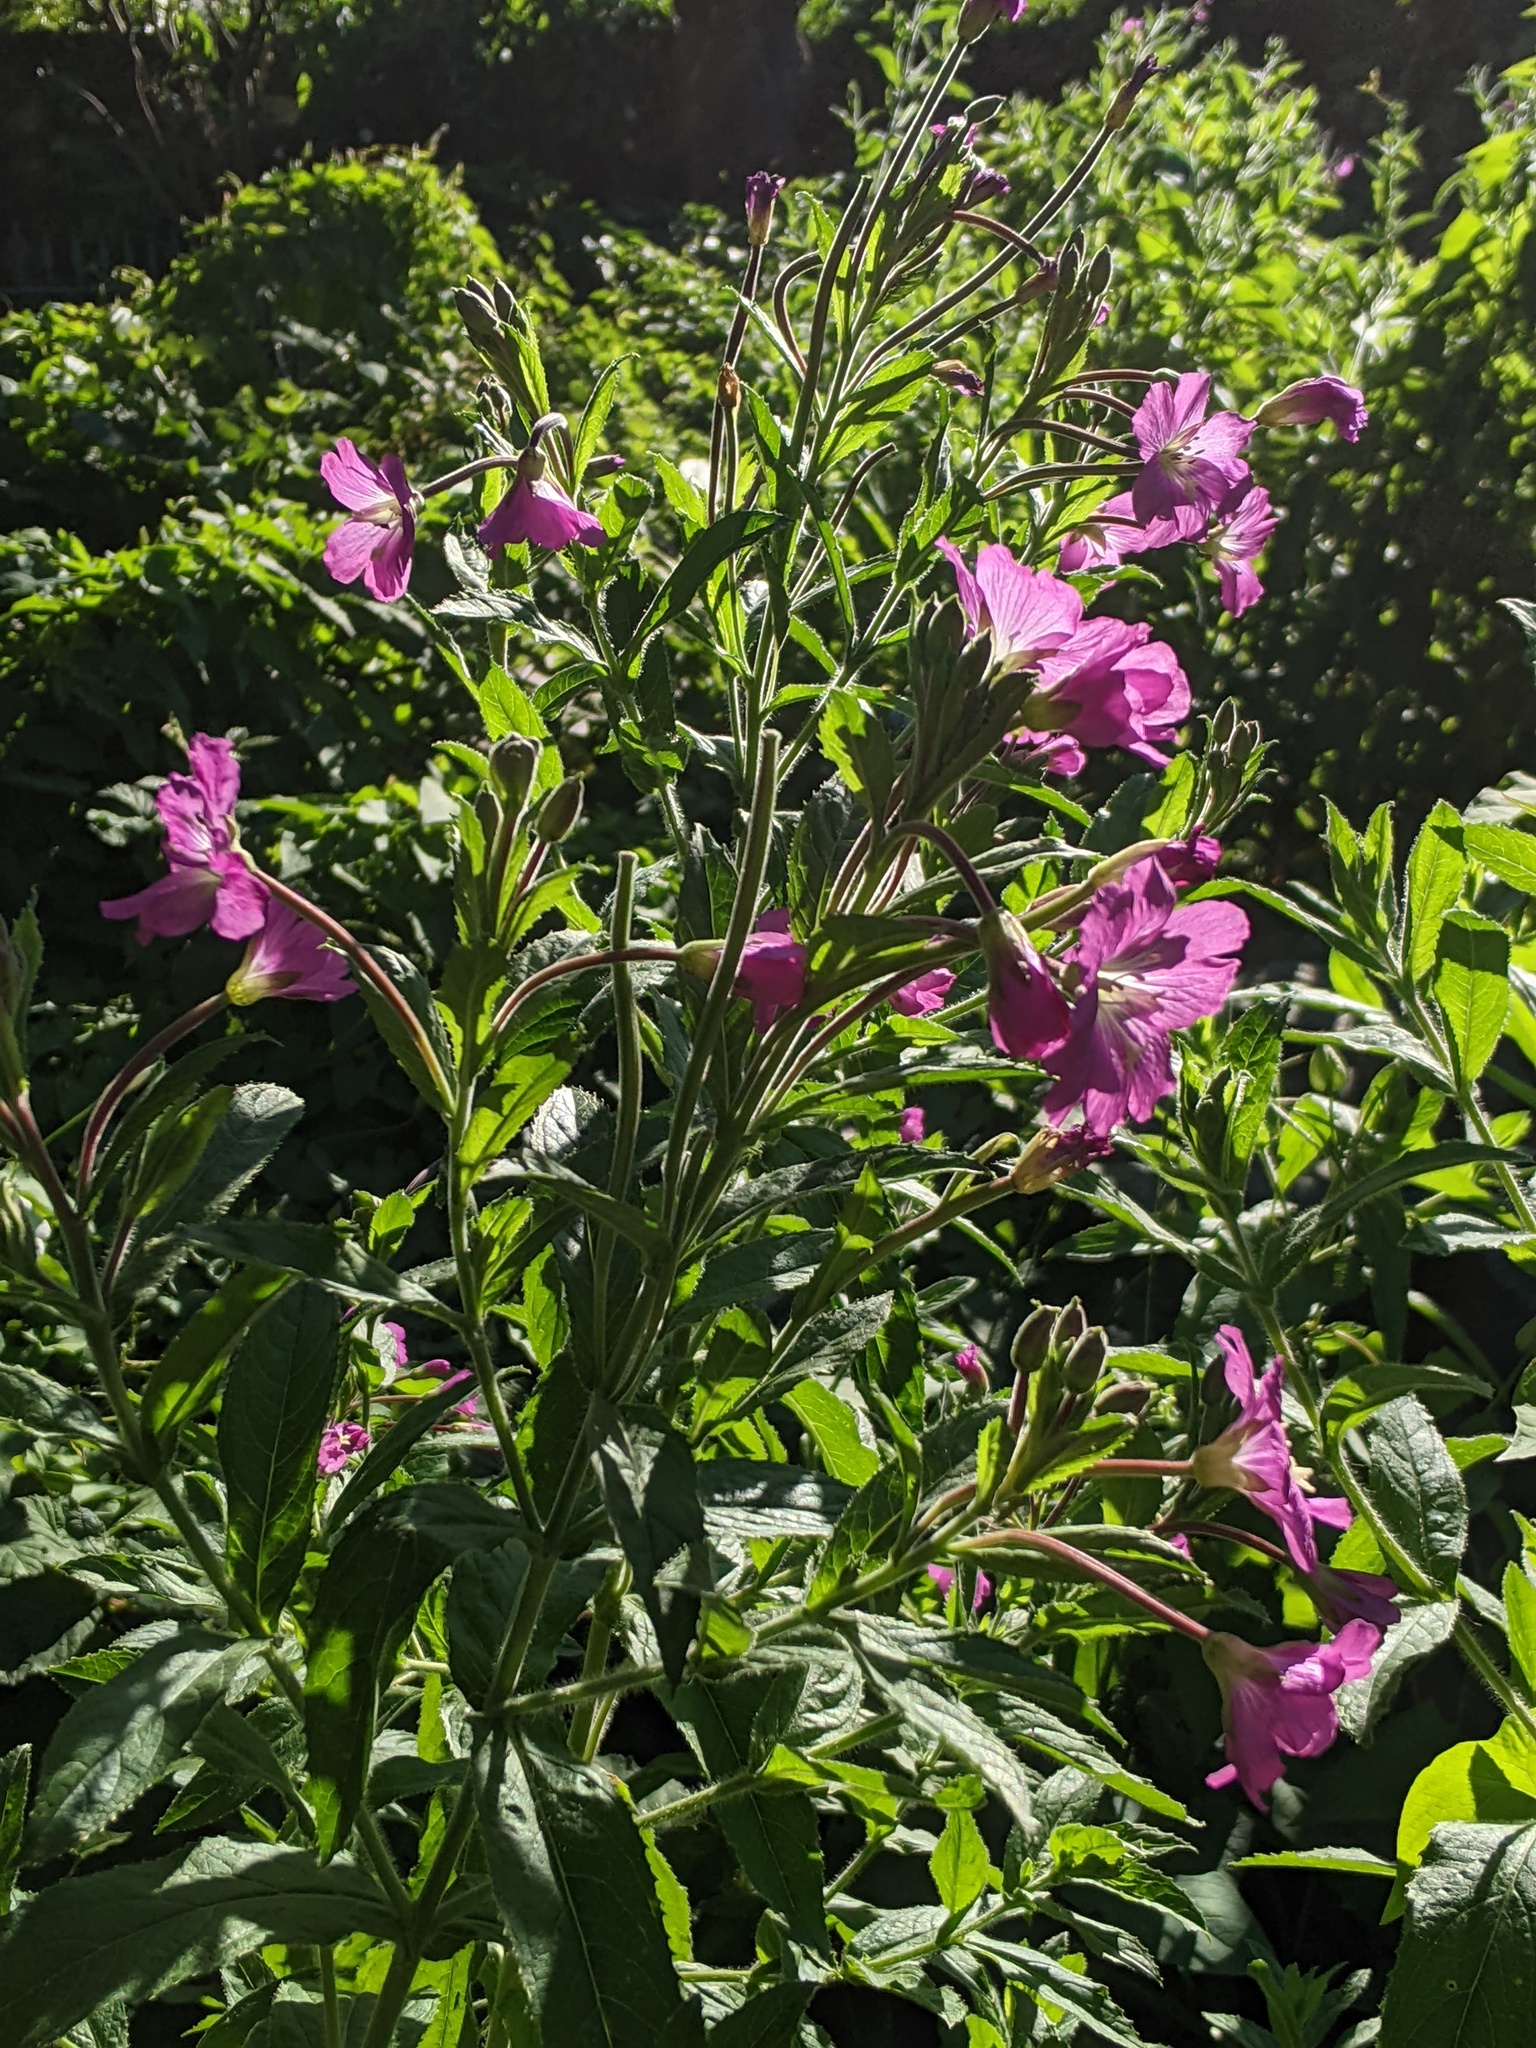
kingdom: Plantae
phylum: Tracheophyta
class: Magnoliopsida
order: Myrtales
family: Onagraceae
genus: Epilobium
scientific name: Epilobium hirsutum
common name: Great willowherb
